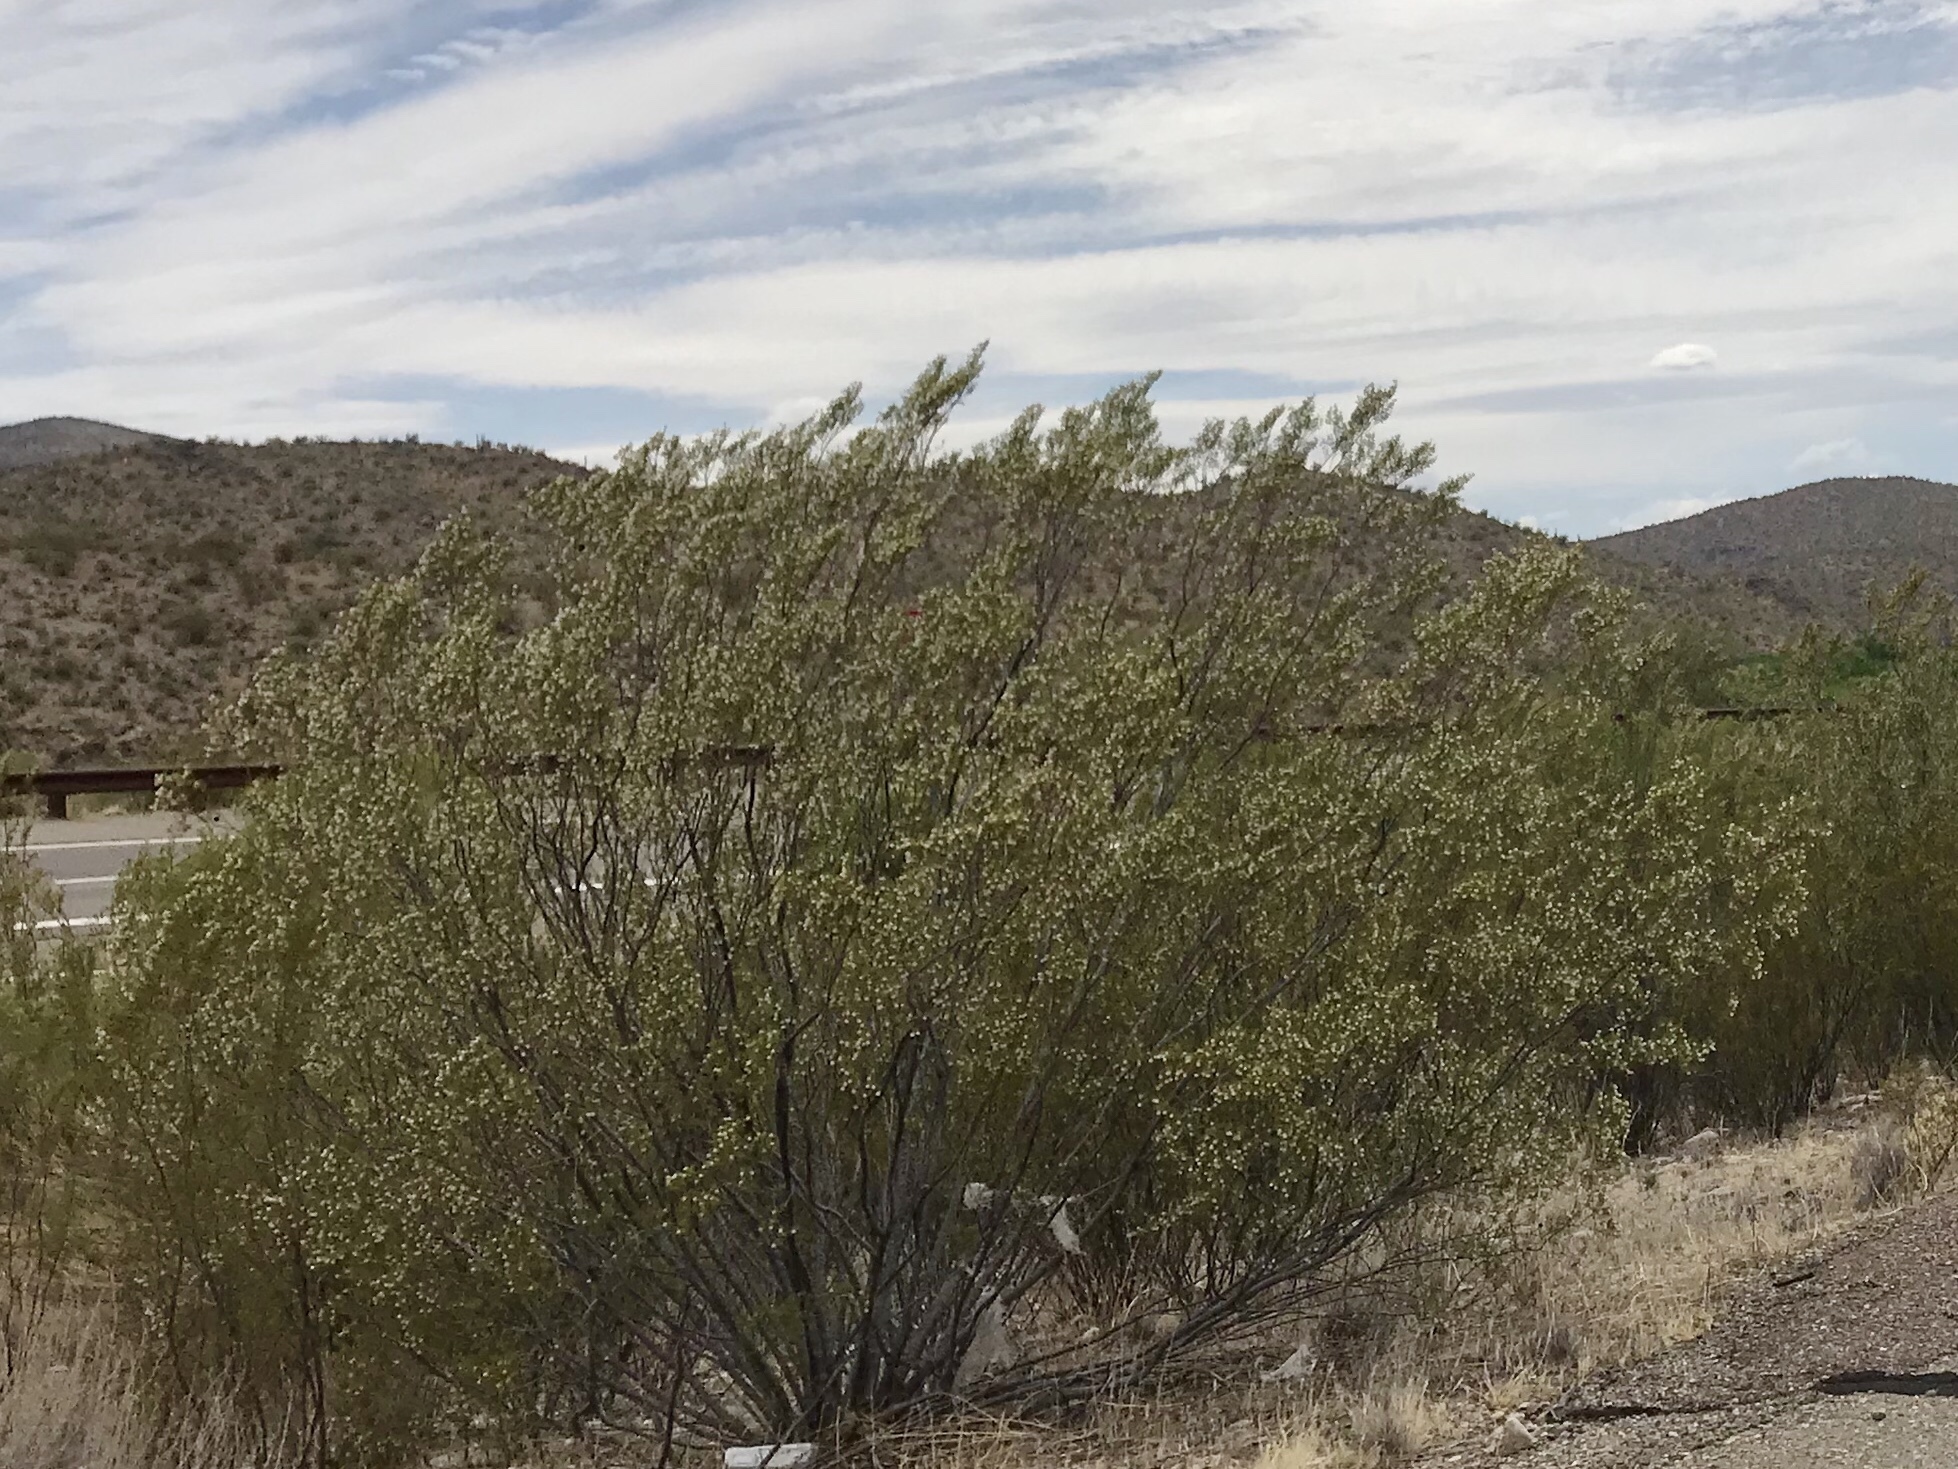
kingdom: Plantae
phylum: Tracheophyta
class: Magnoliopsida
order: Zygophyllales
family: Zygophyllaceae
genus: Larrea
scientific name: Larrea tridentata
